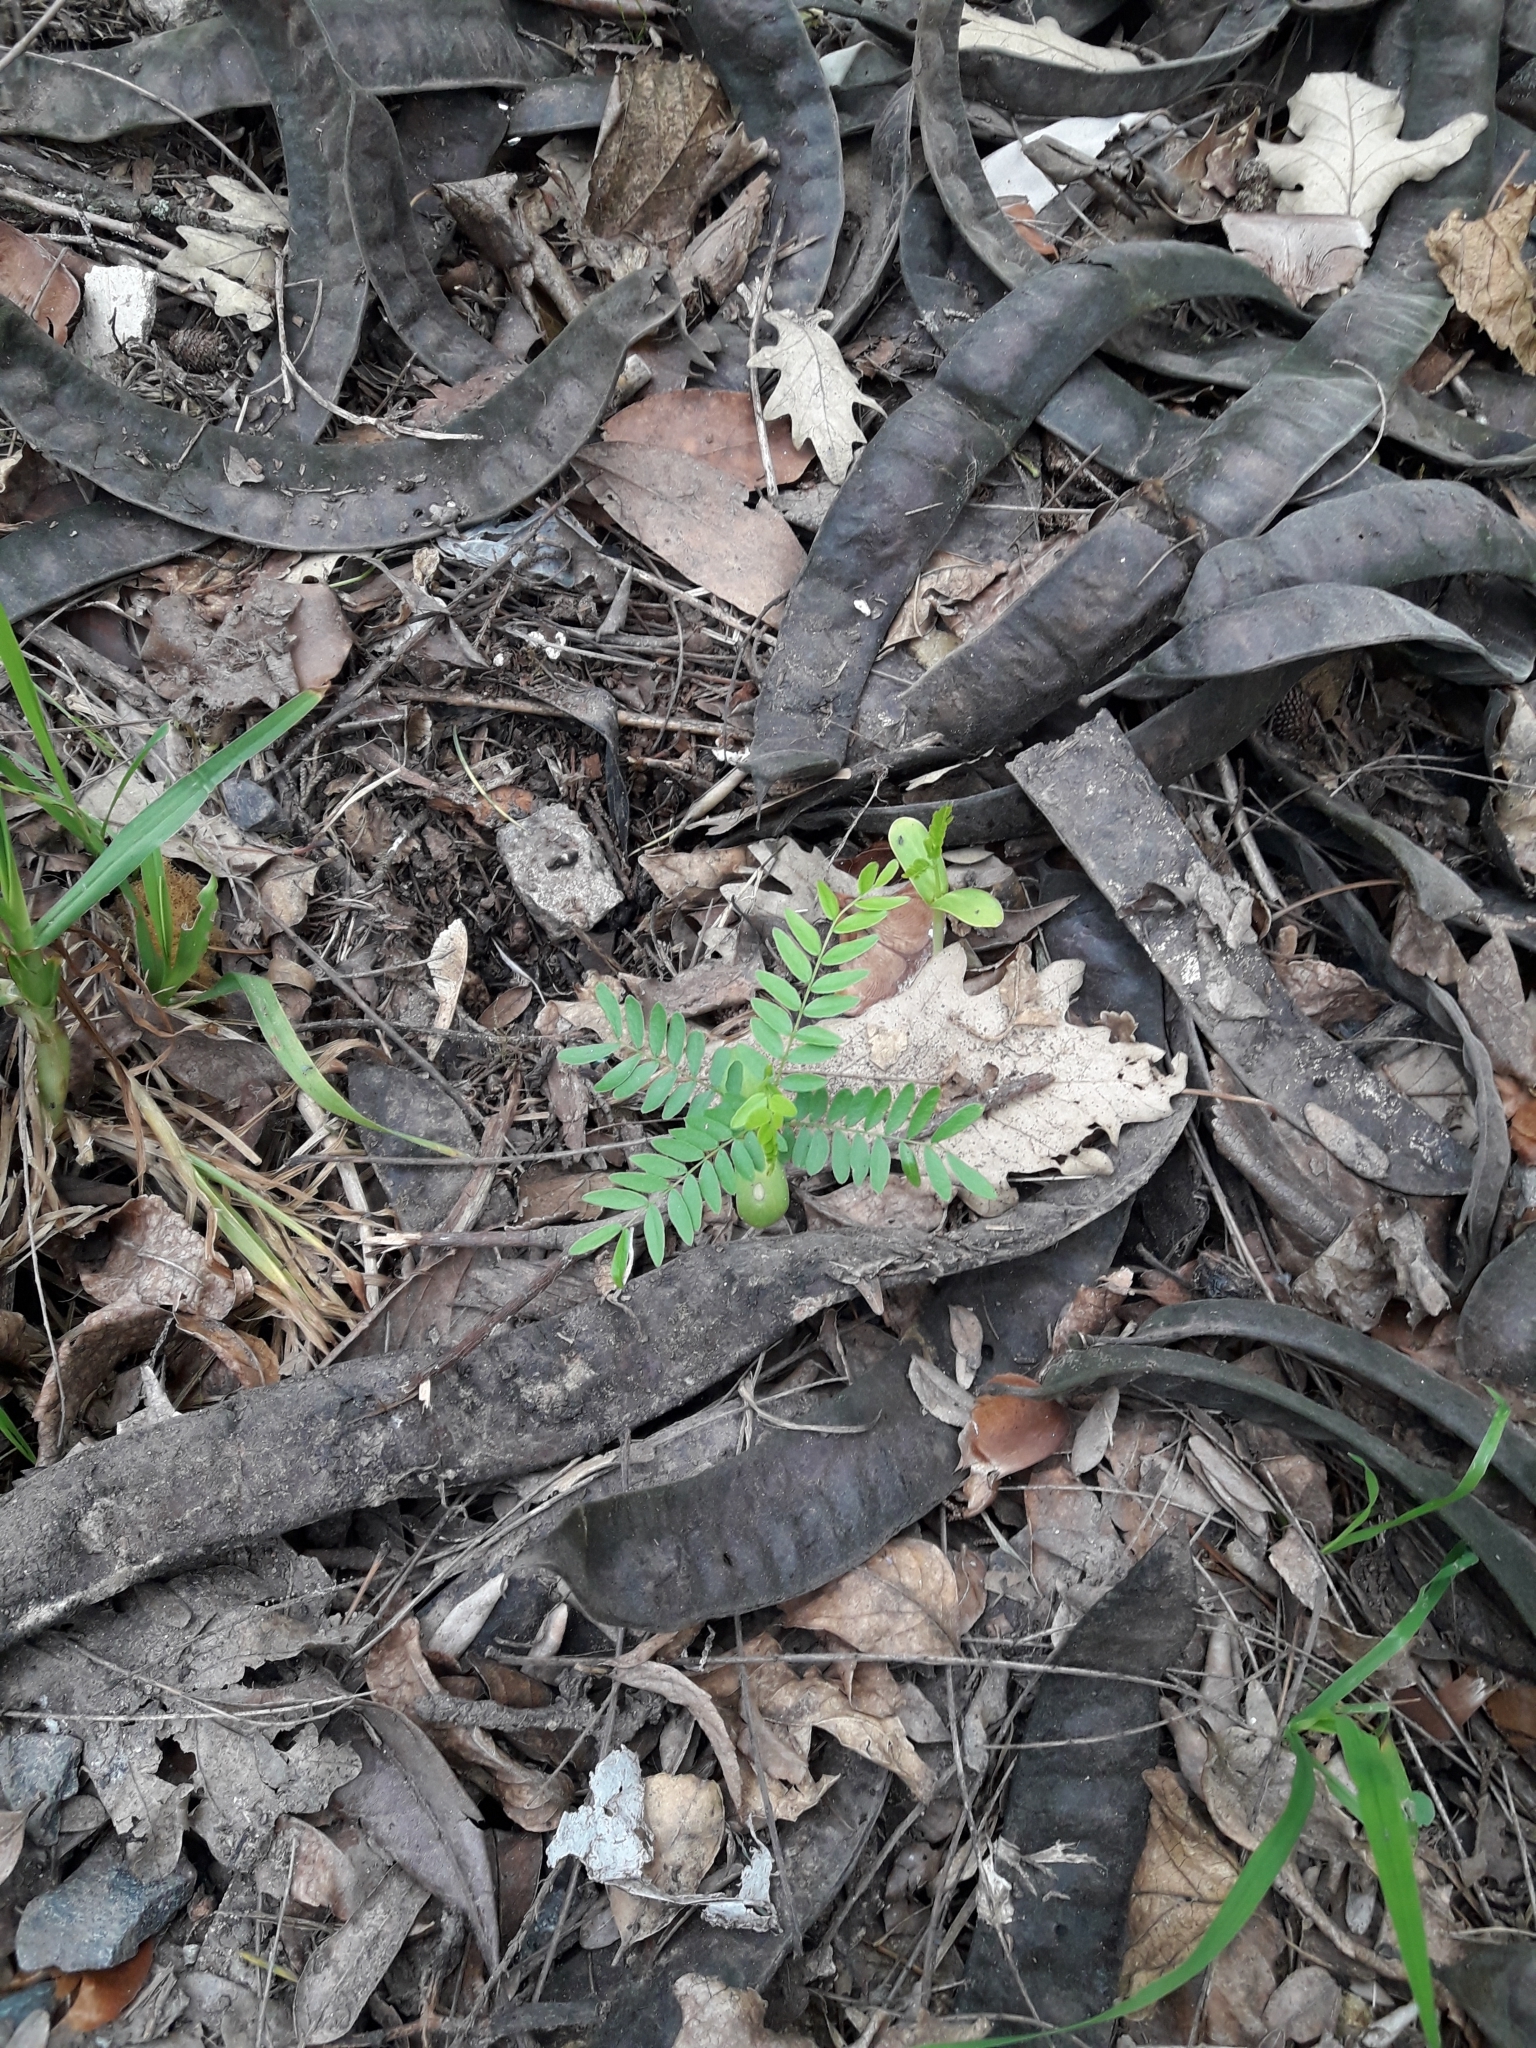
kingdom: Plantae
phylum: Tracheophyta
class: Magnoliopsida
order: Fabales
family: Fabaceae
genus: Gleditsia
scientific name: Gleditsia triacanthos
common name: Common honeylocust
